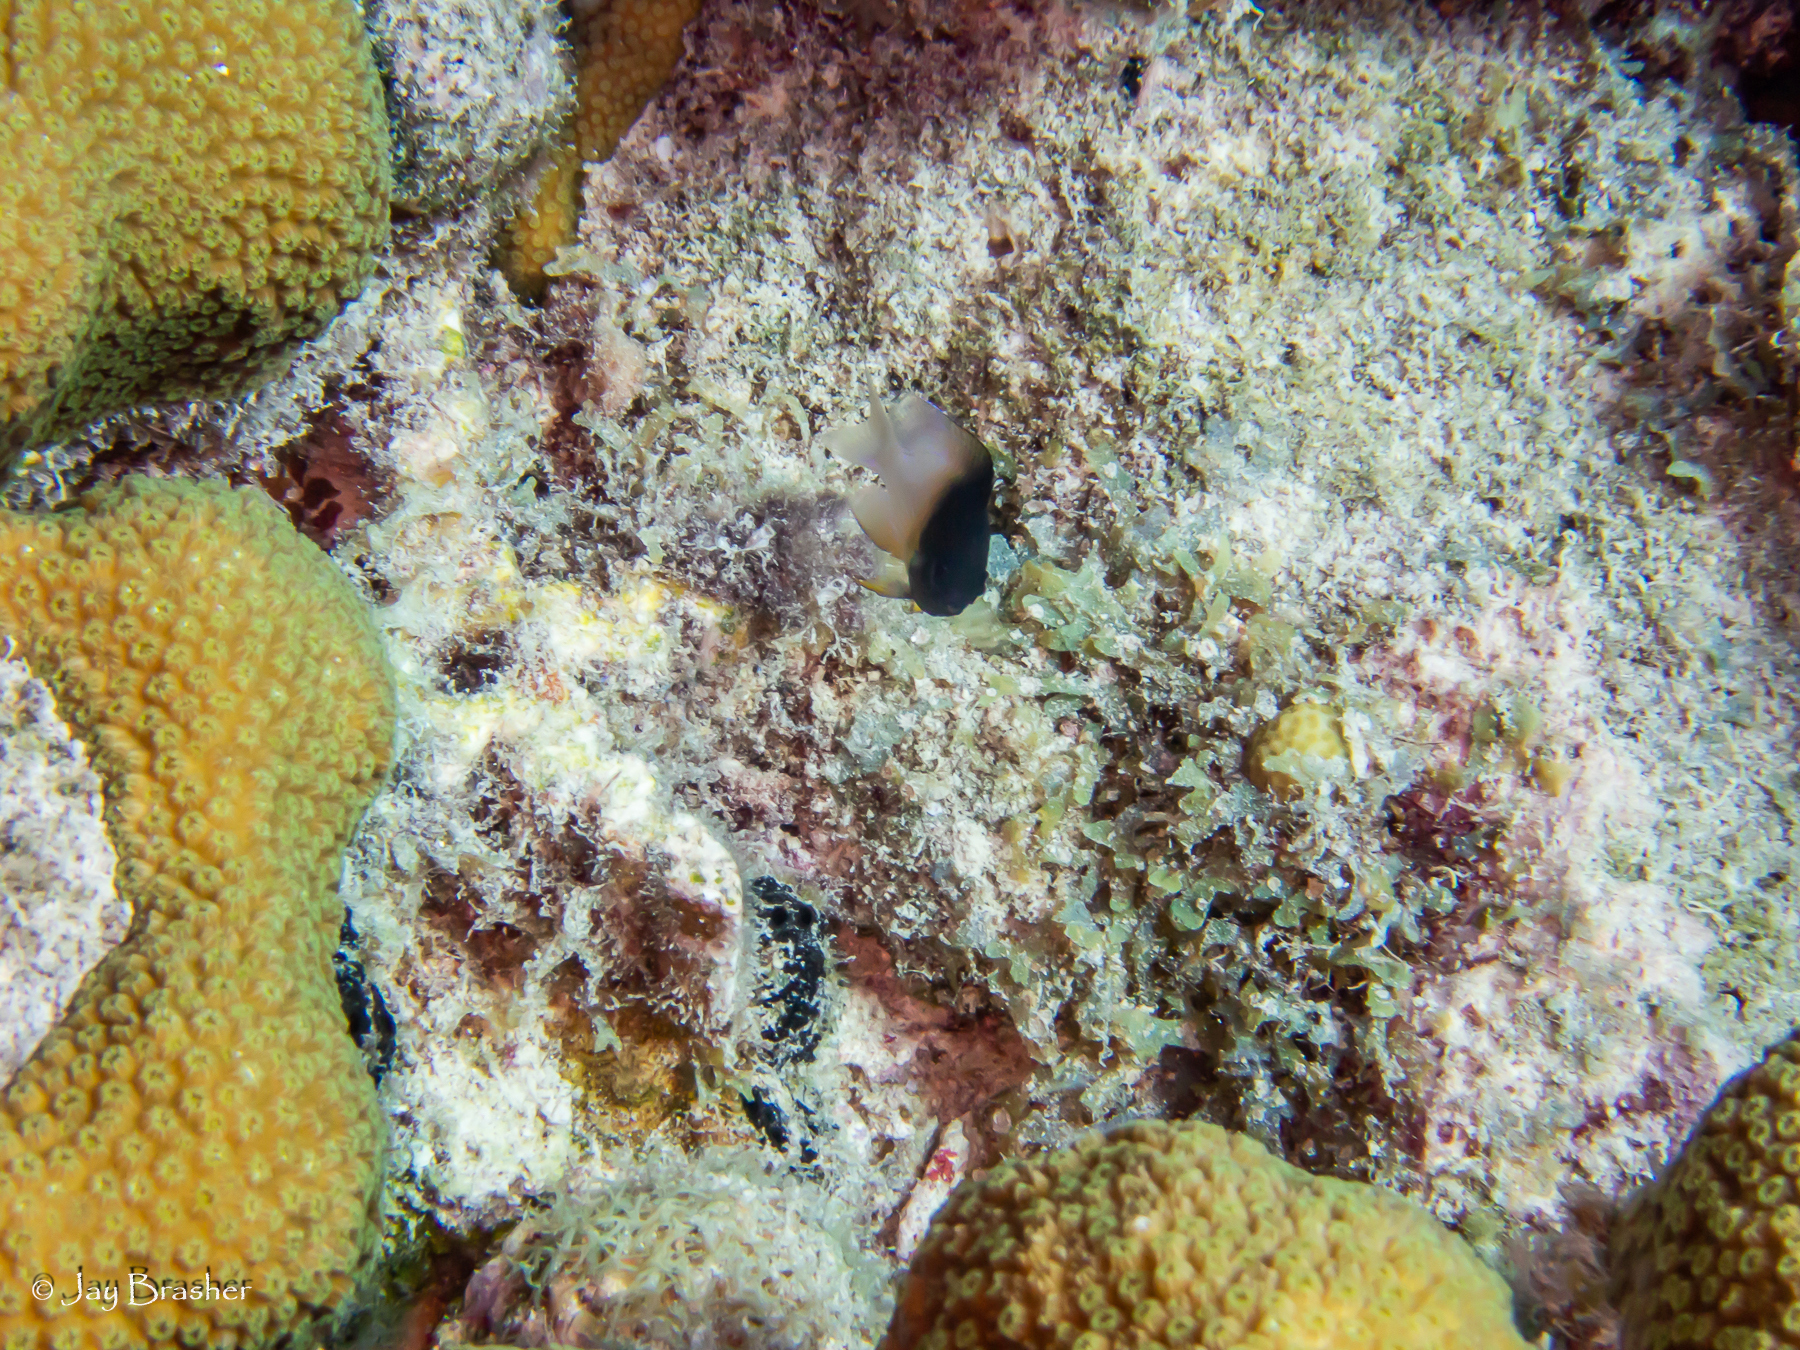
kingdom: Animalia
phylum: Chordata
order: Perciformes
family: Pomacentridae
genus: Stegastes
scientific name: Stegastes partitus
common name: Bicolor damselfish
